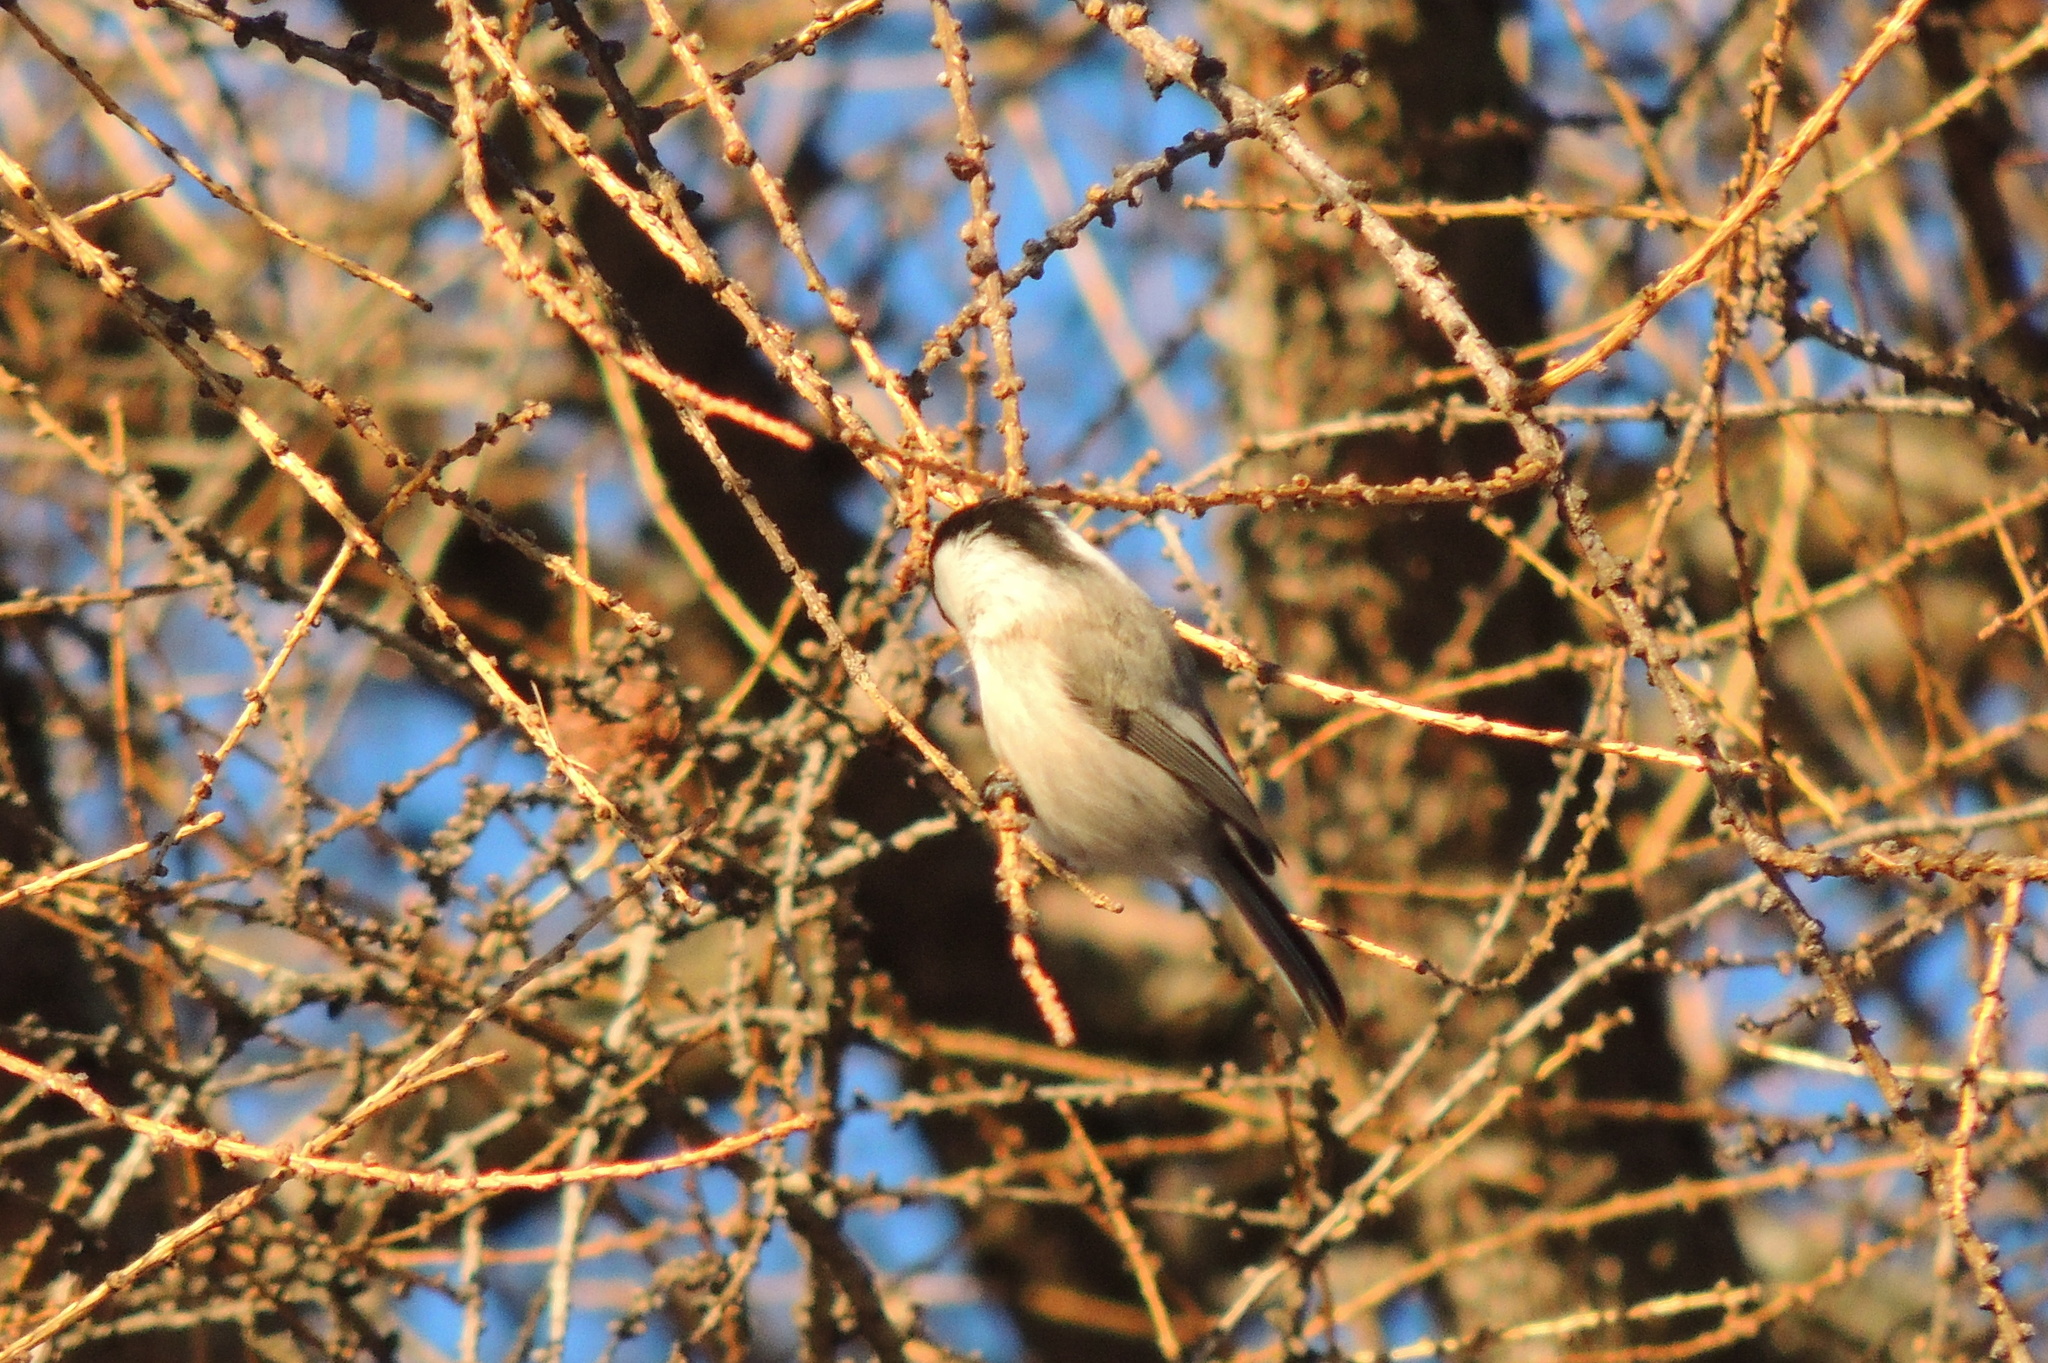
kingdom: Animalia
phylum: Chordata
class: Aves
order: Passeriformes
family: Paridae
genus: Poecile
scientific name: Poecile montanus
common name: Willow tit
